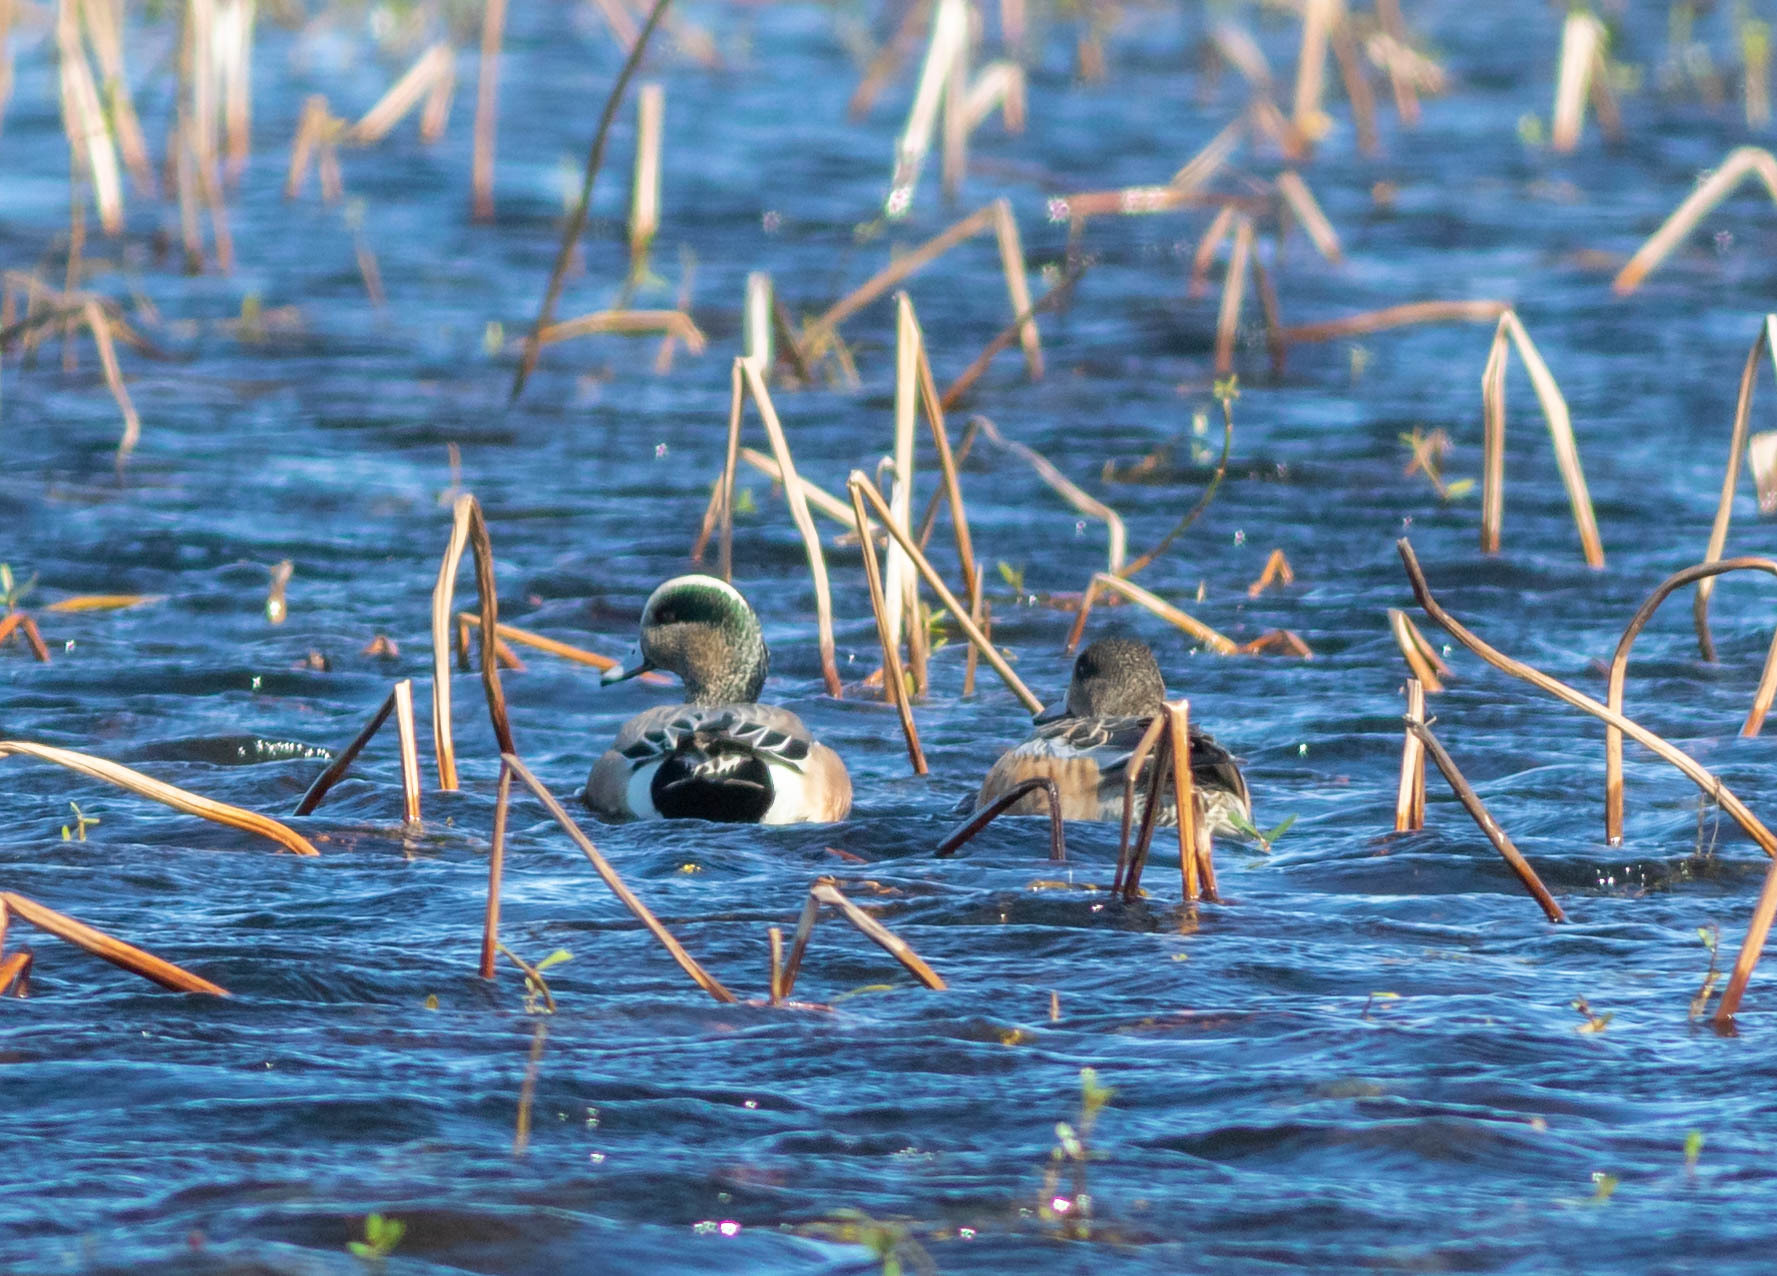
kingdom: Animalia
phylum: Chordata
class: Aves
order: Anseriformes
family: Anatidae
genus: Mareca
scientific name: Mareca americana
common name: American wigeon
